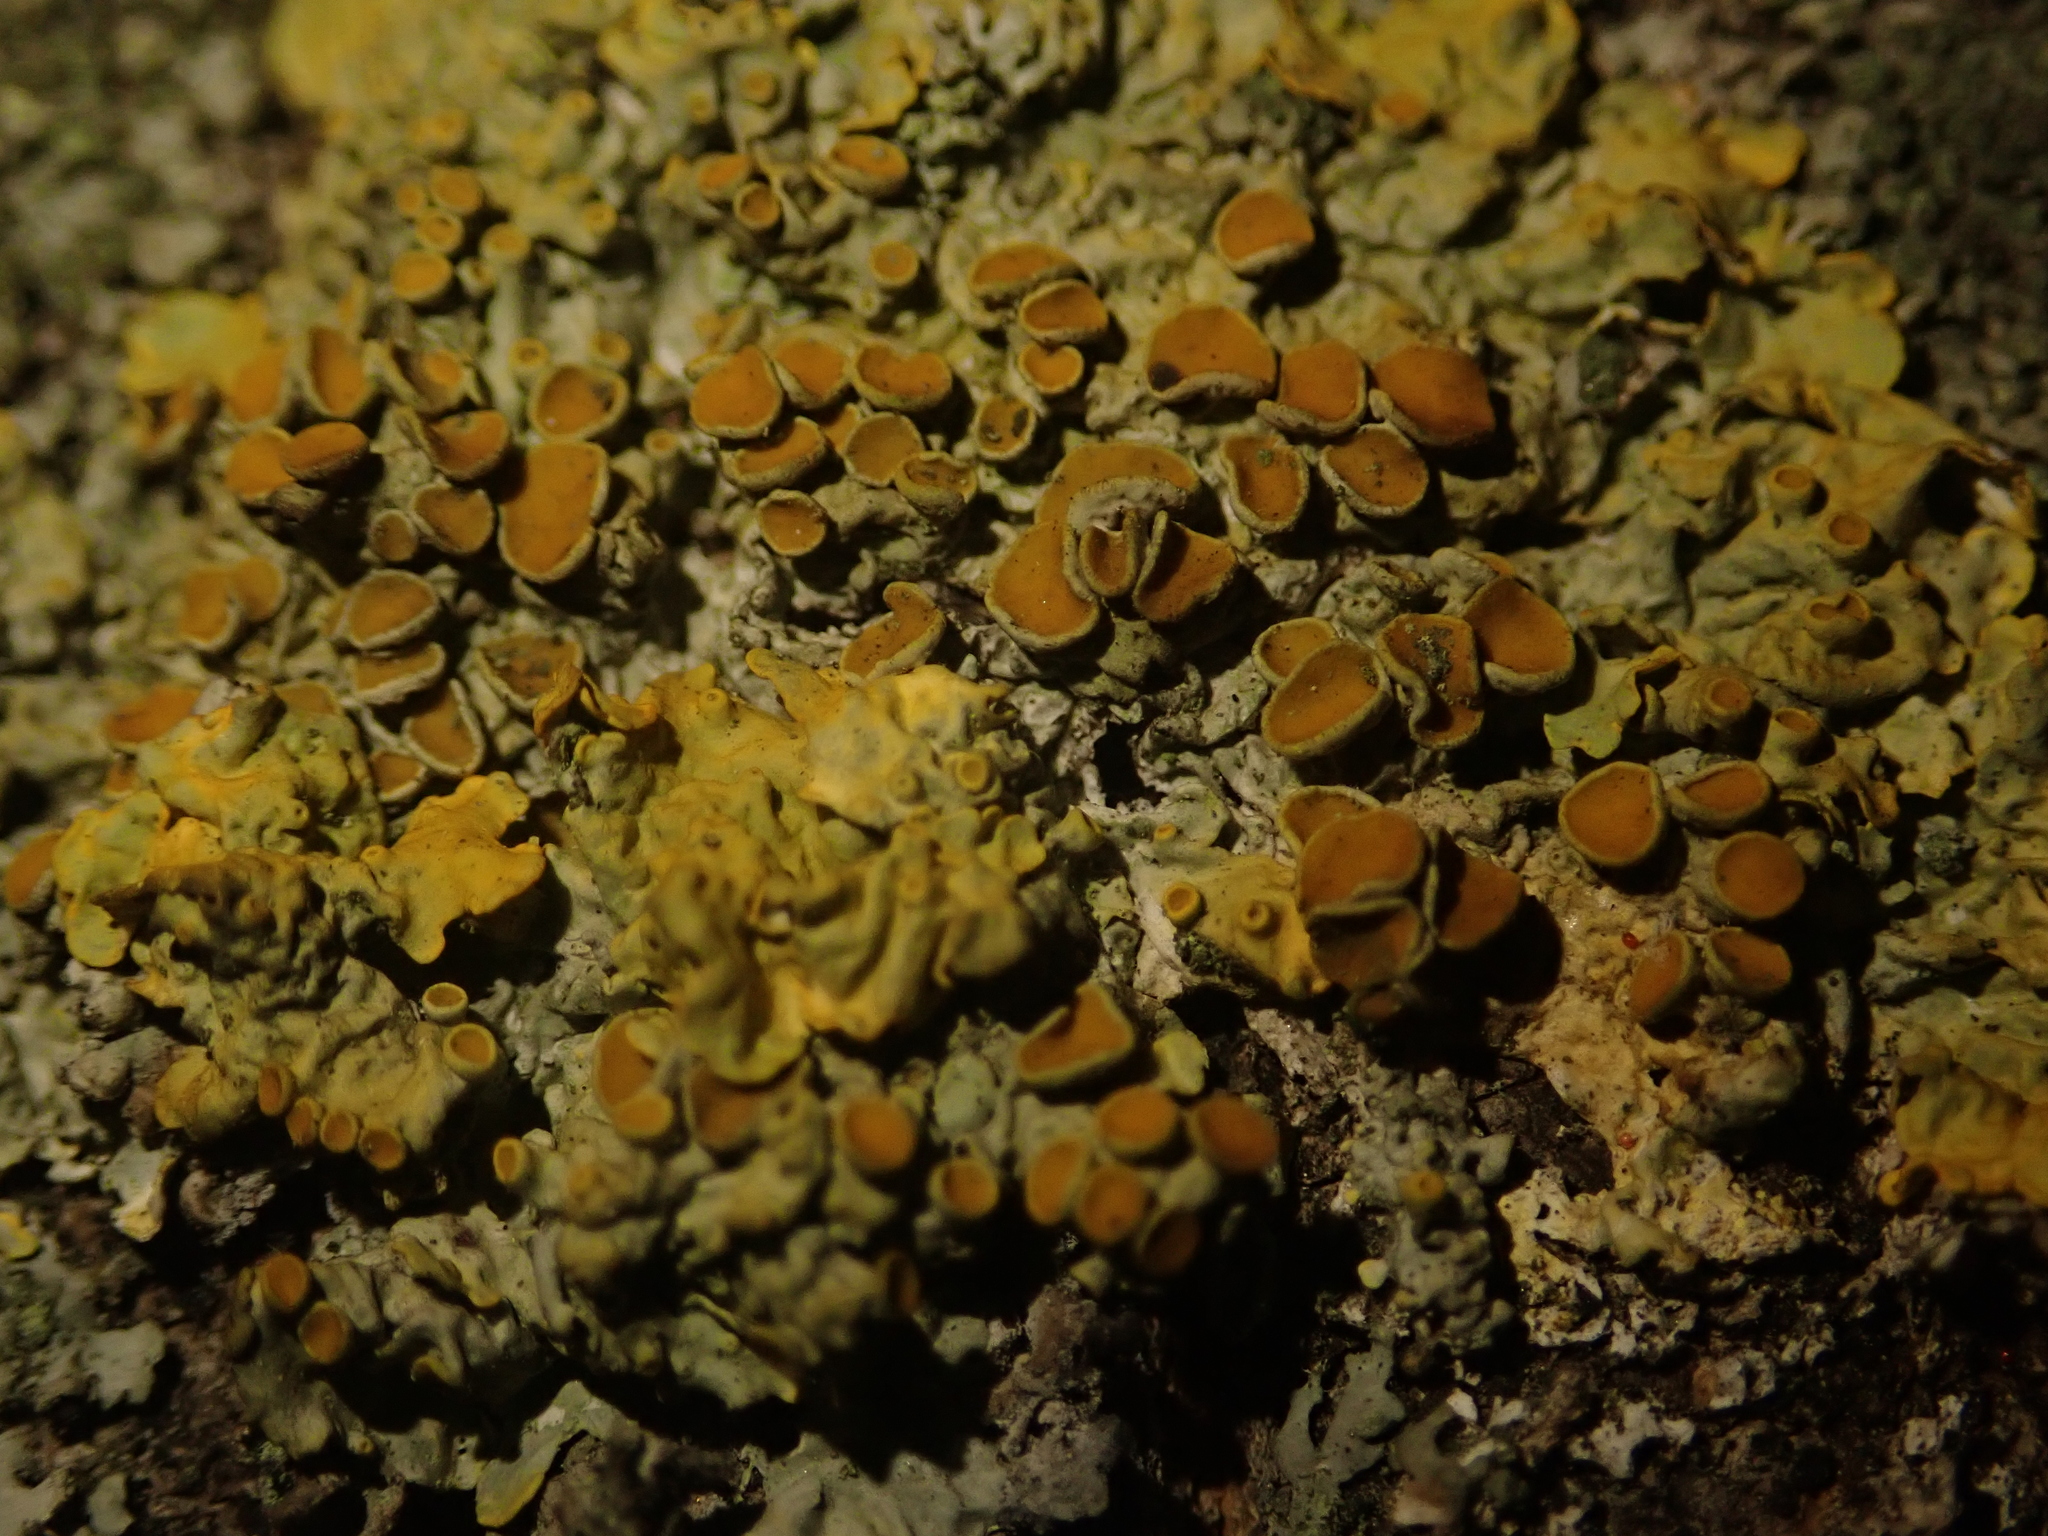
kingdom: Fungi
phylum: Ascomycota
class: Lecanoromycetes
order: Teloschistales
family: Teloschistaceae
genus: Xanthoria
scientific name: Xanthoria parietina
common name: Common orange lichen
